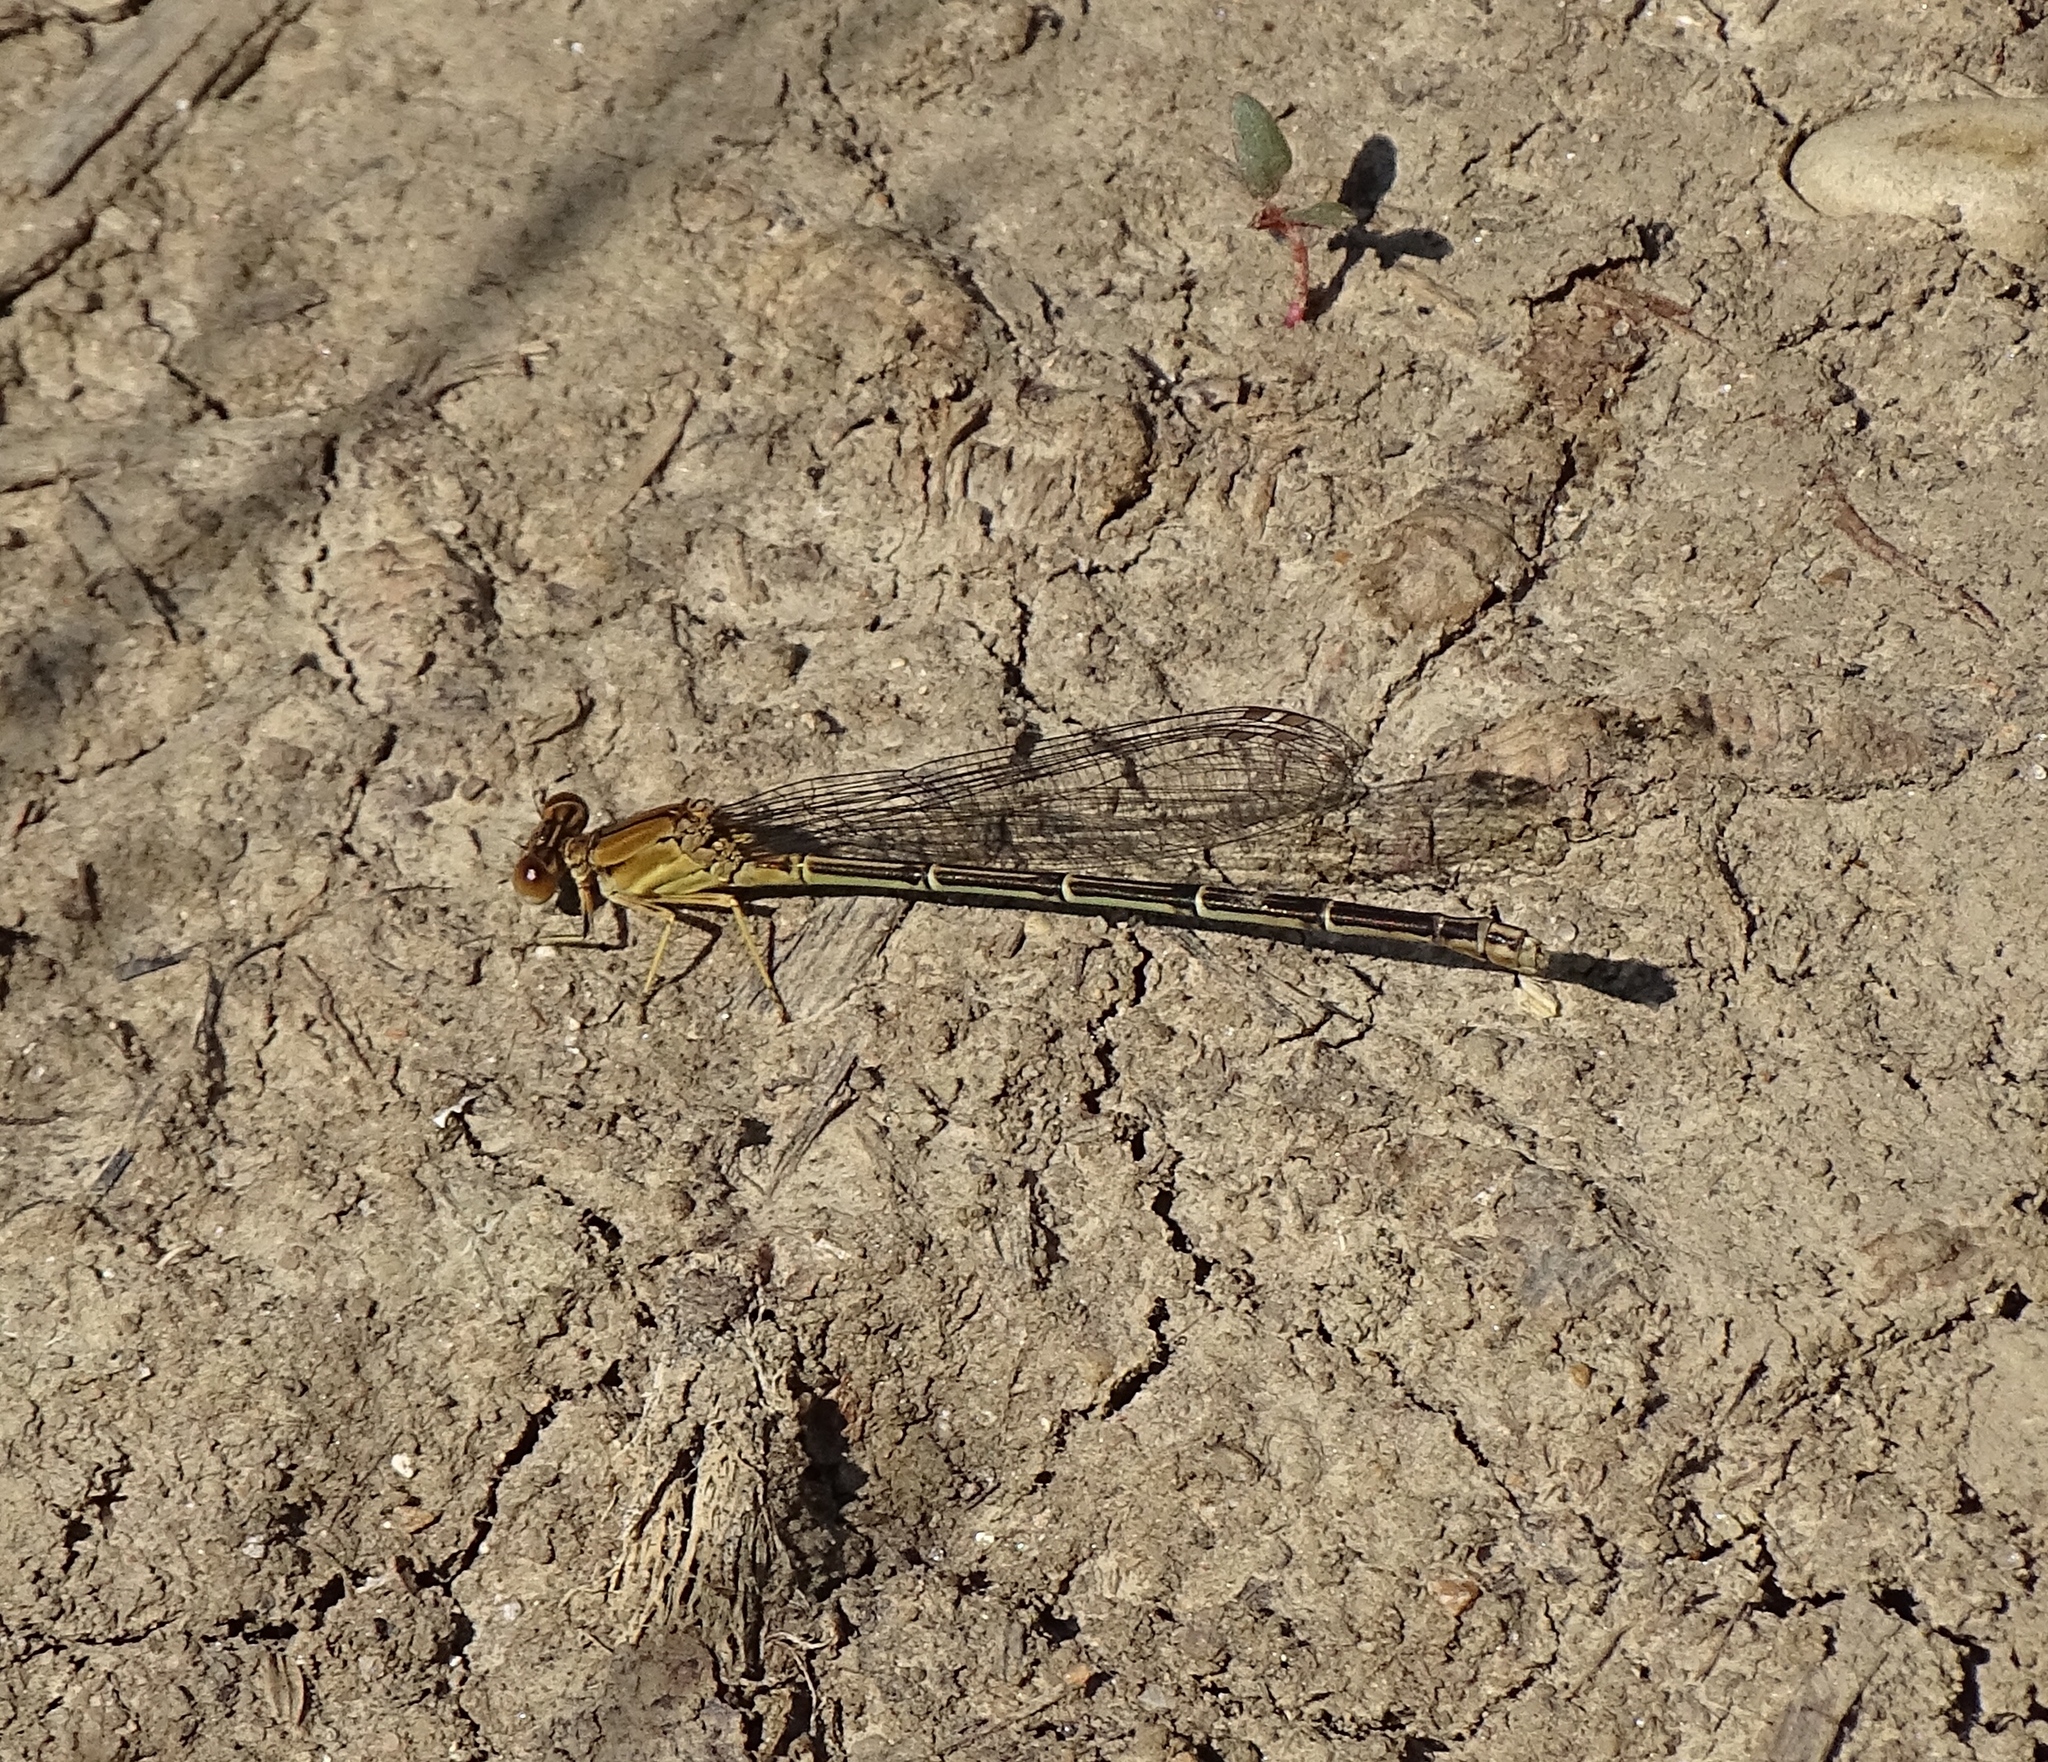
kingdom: Animalia
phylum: Arthropoda
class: Insecta
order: Odonata
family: Coenagrionidae
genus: Argia
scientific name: Argia apicalis
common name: Blue-fronted dancer
